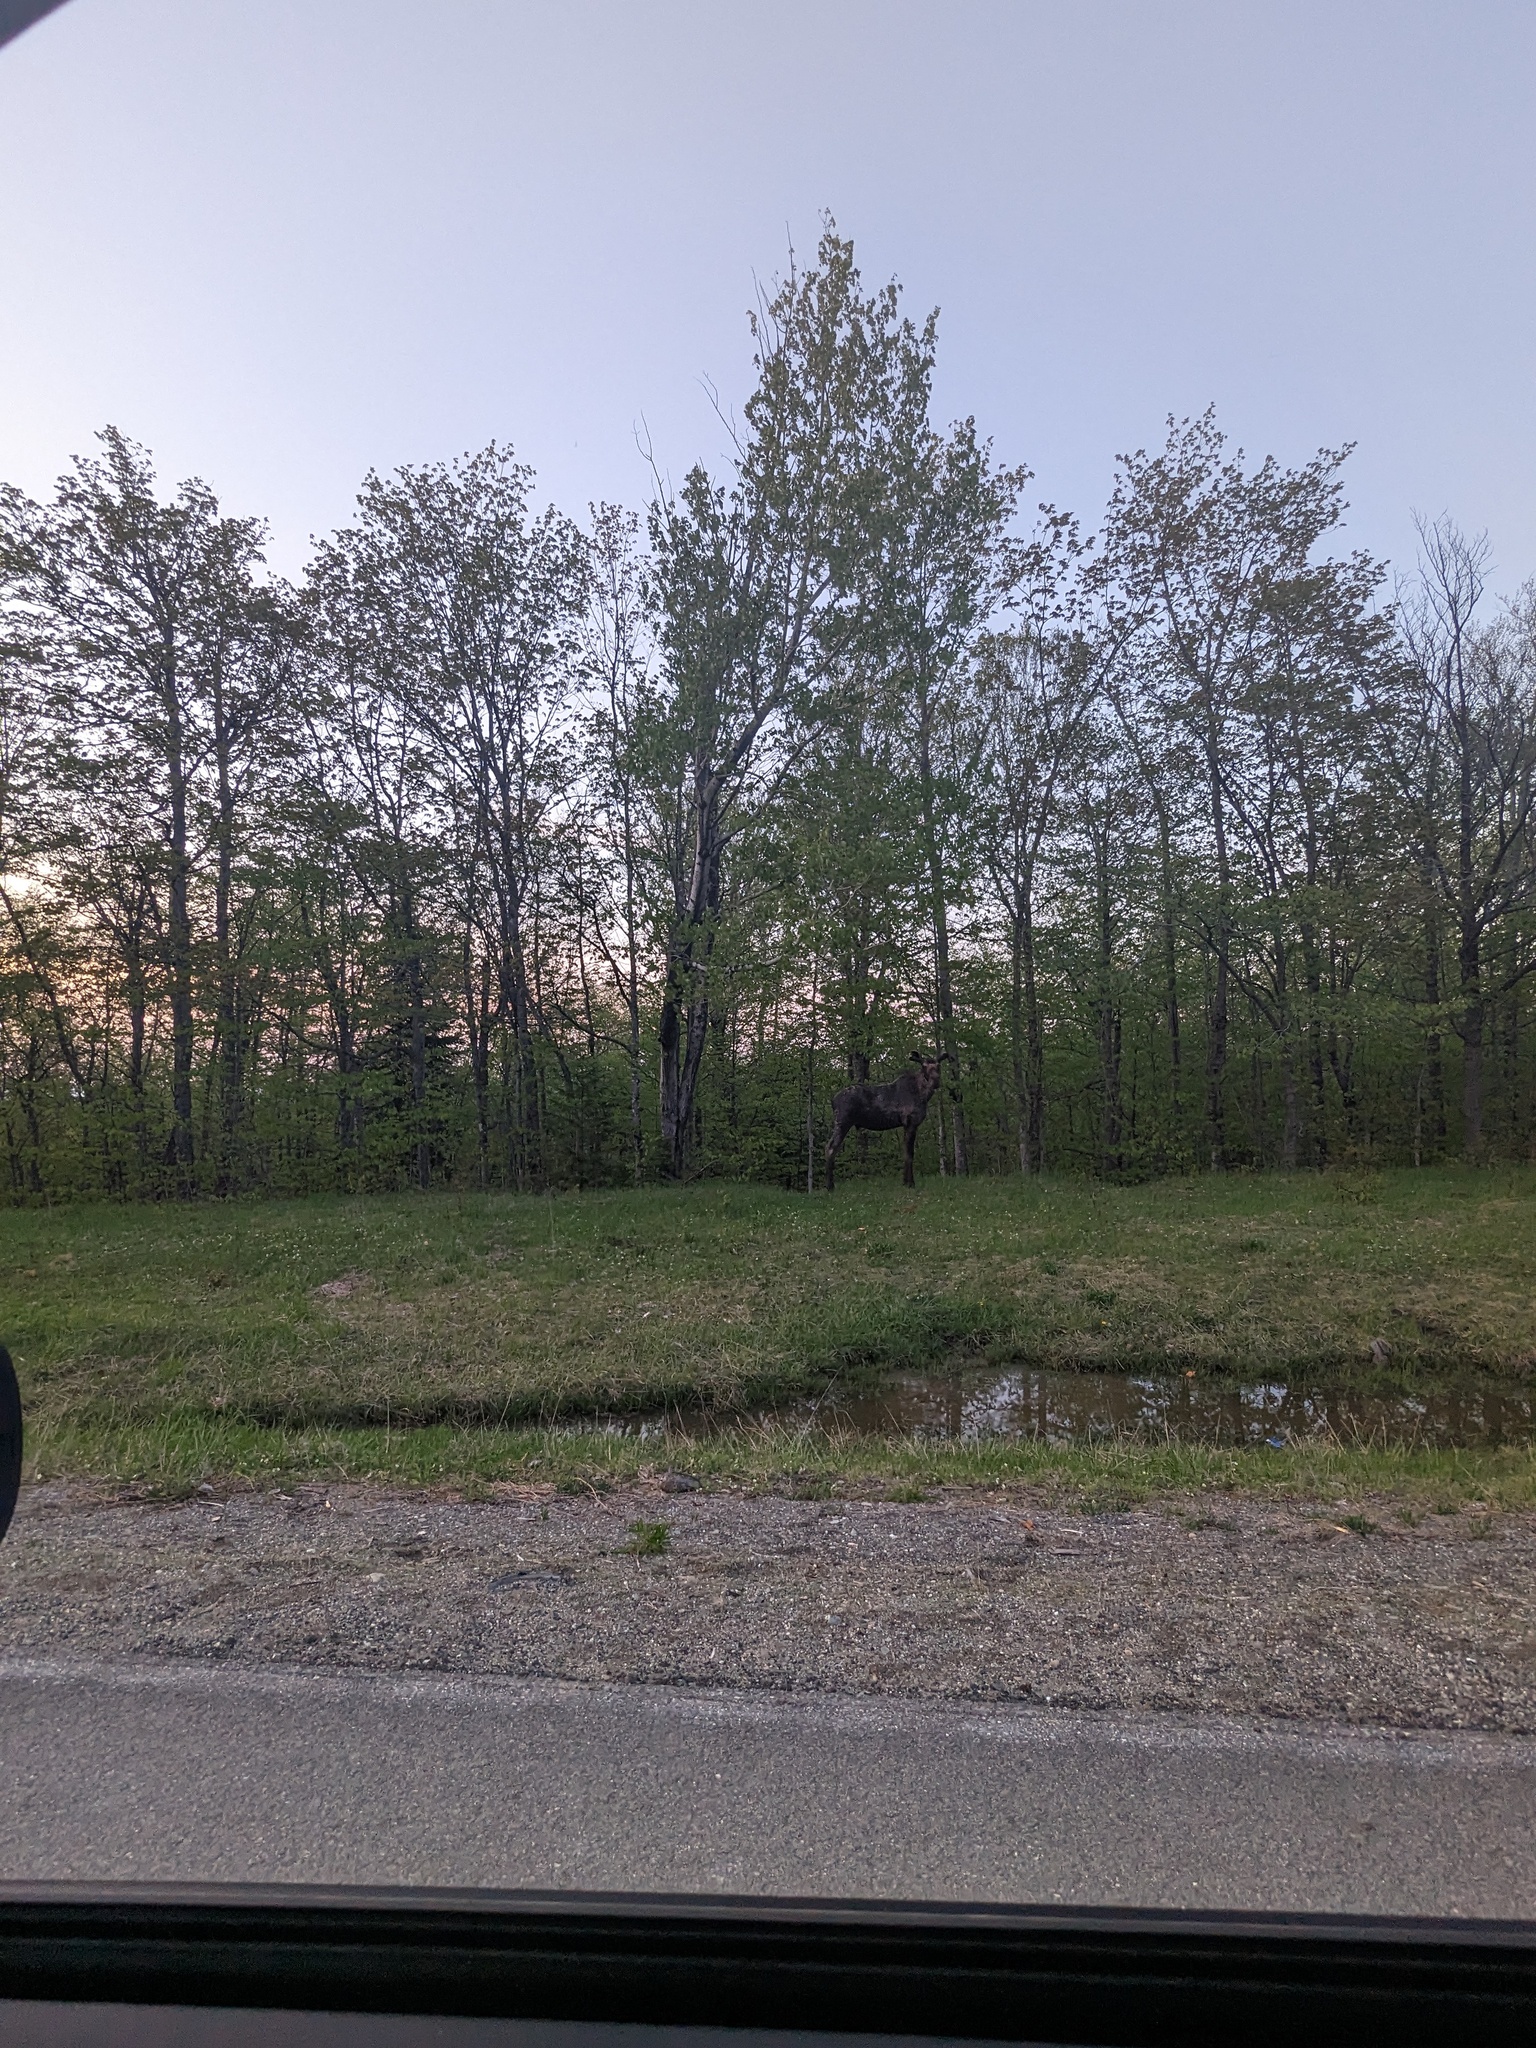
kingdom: Animalia
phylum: Chordata
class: Mammalia
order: Artiodactyla
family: Cervidae
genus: Alces
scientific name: Alces alces
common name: Moose
